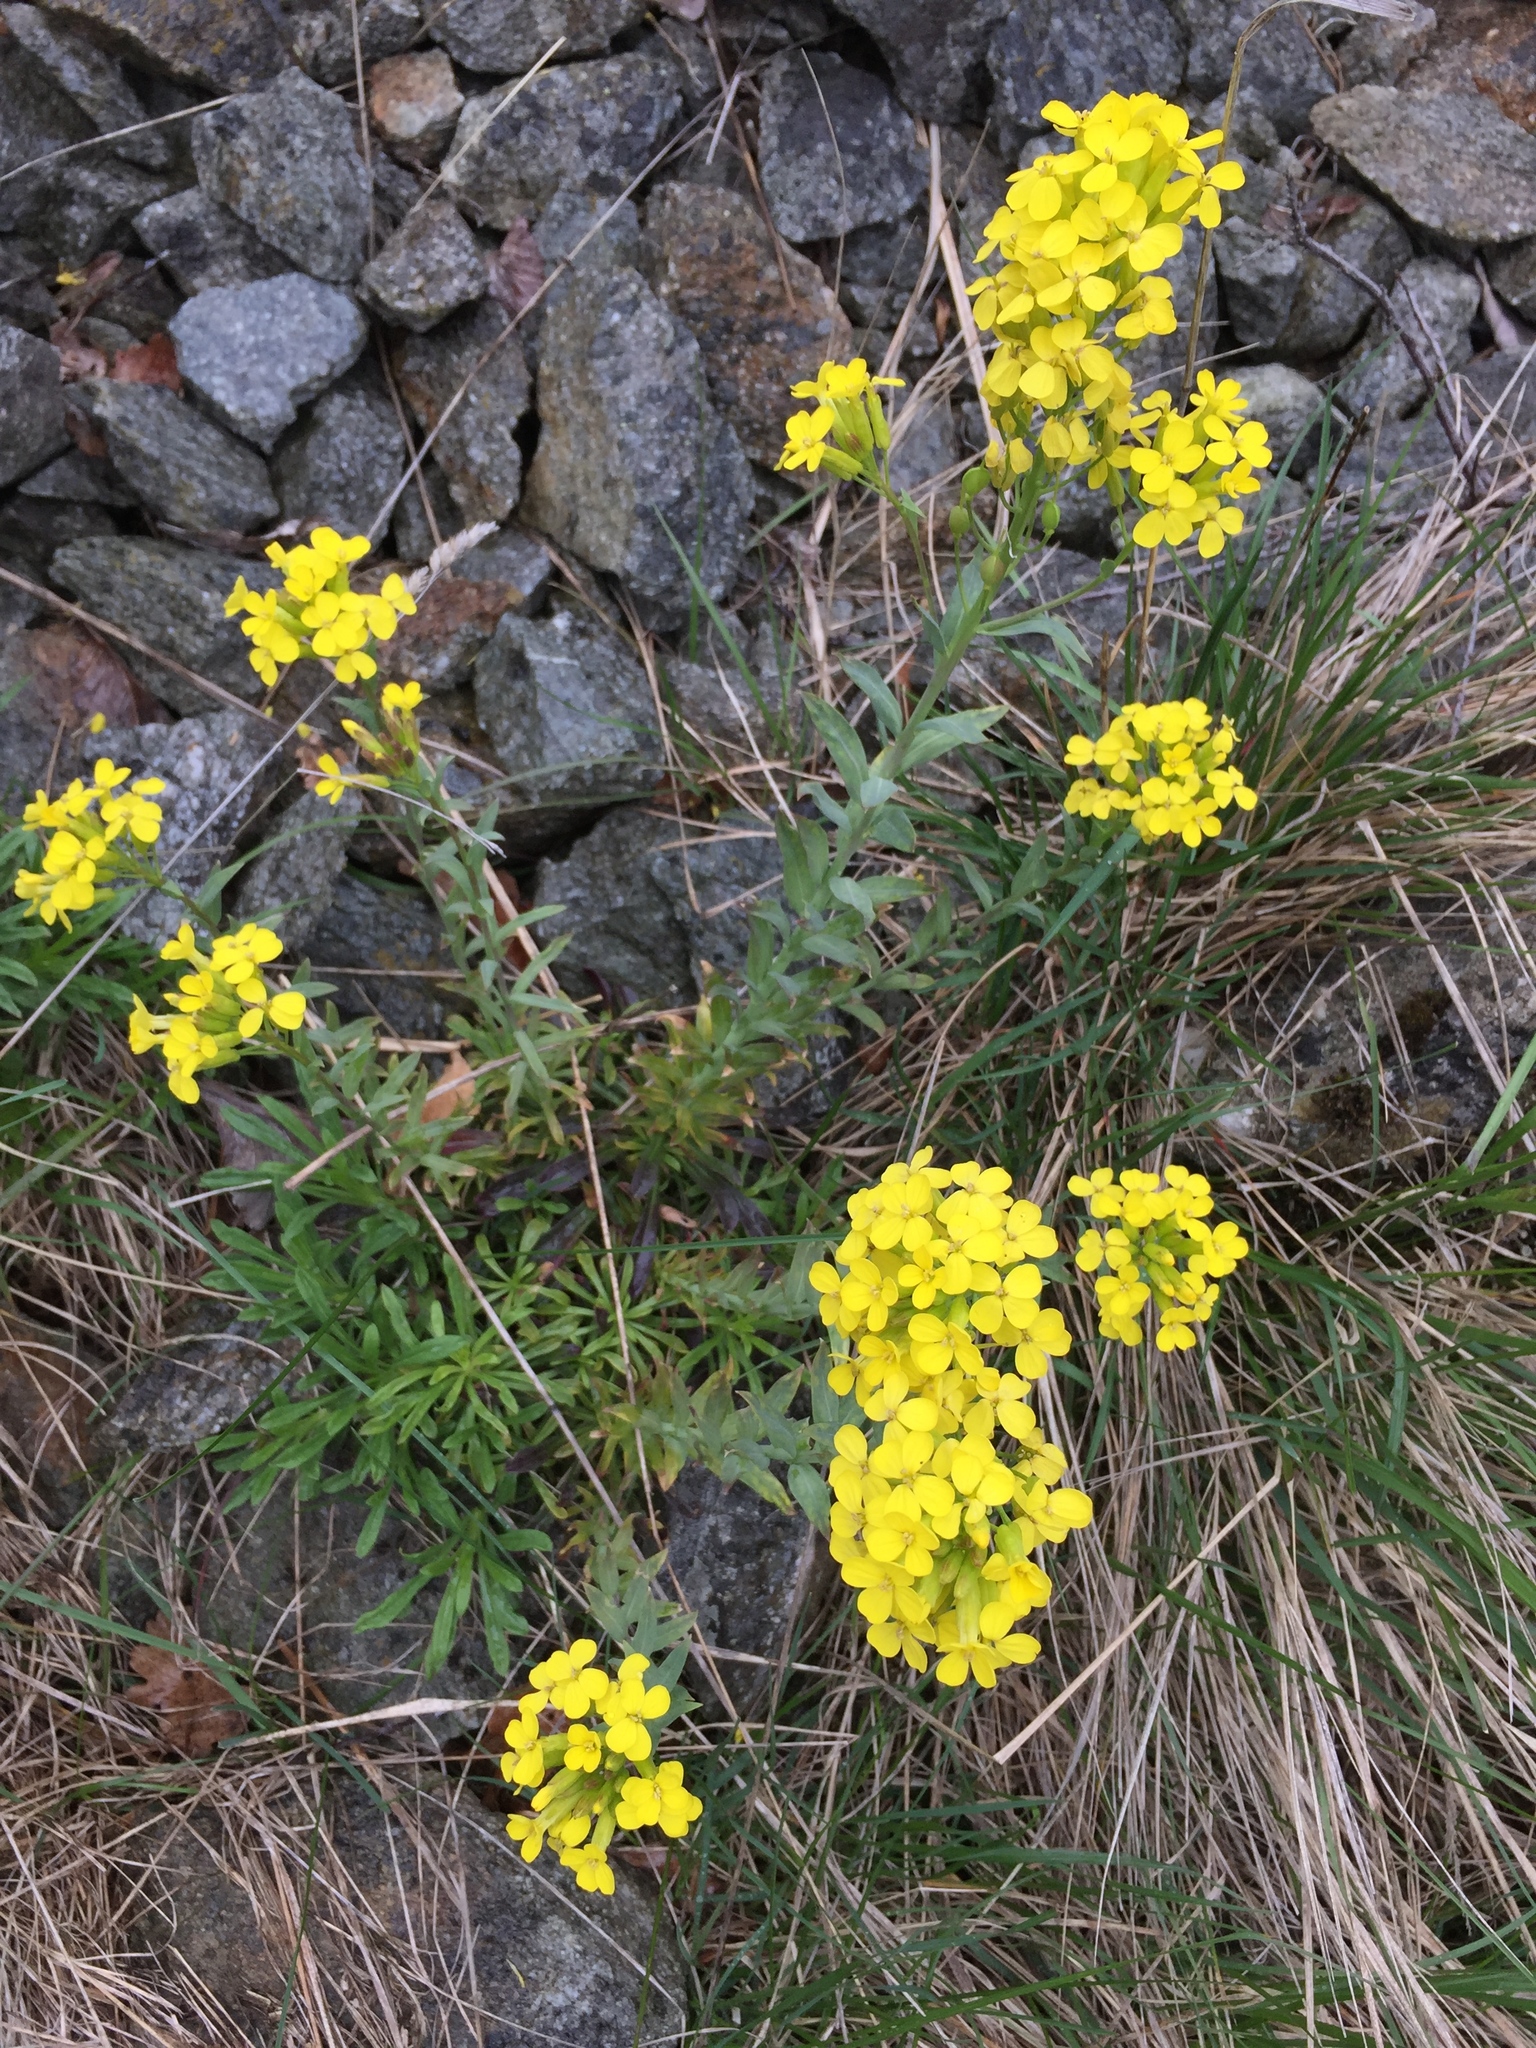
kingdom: Plantae
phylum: Tracheophyta
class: Magnoliopsida
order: Brassicales
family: Brassicaceae
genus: Alyssoides
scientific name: Alyssoides utriculata
